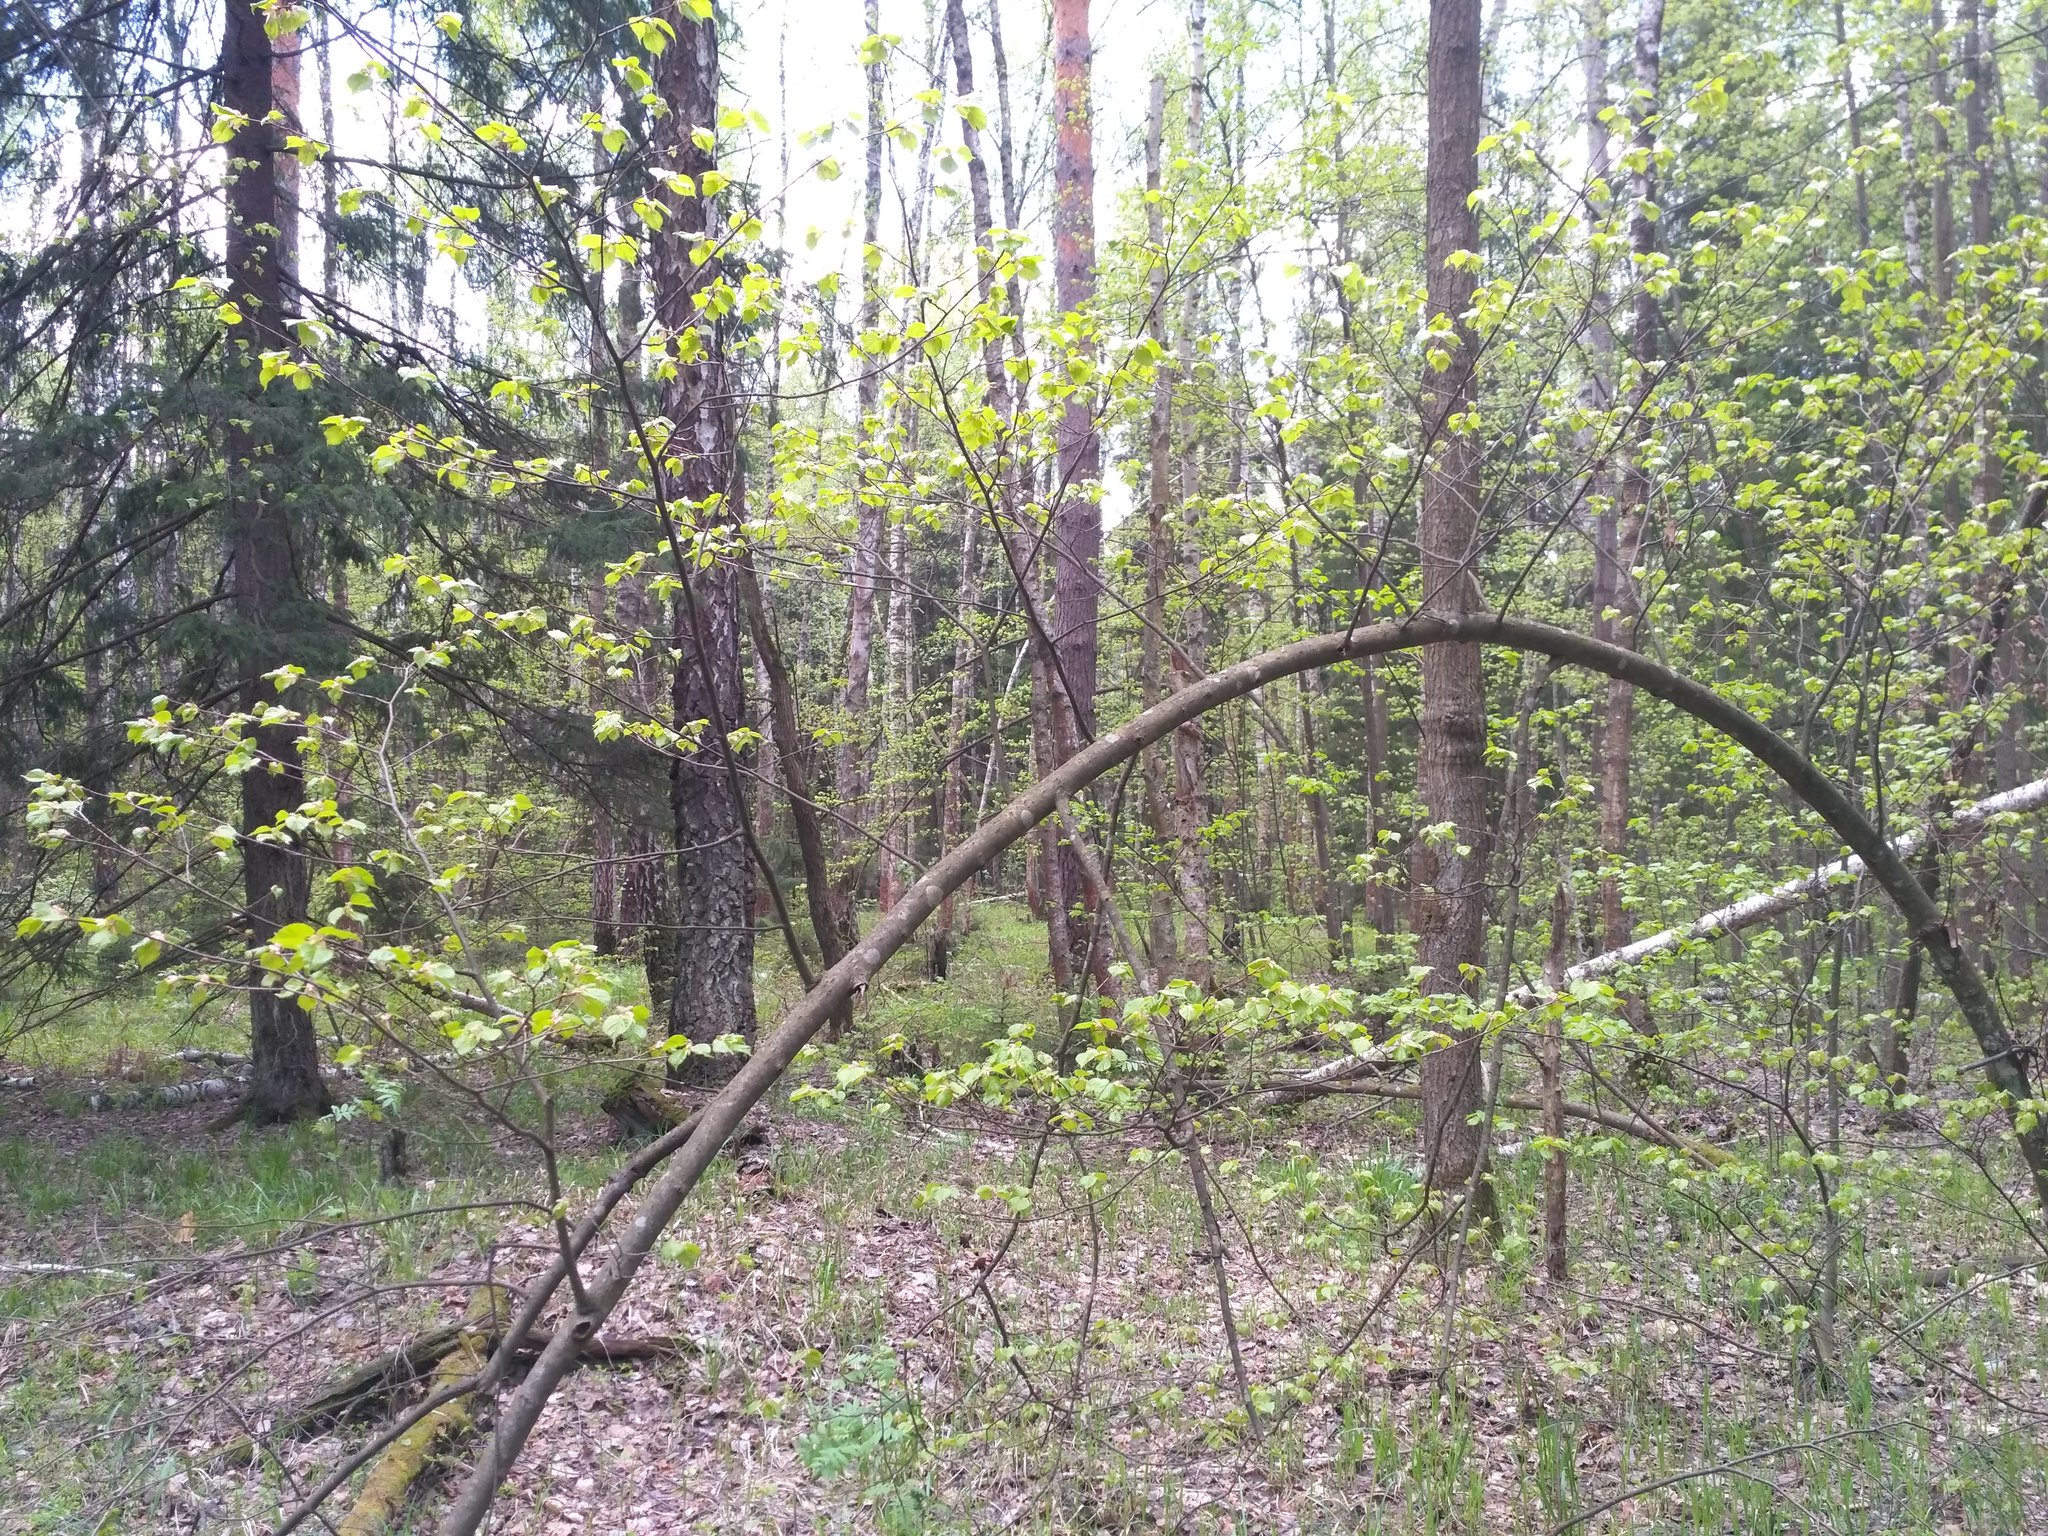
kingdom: Plantae
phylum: Tracheophyta
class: Magnoliopsida
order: Malvales
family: Malvaceae
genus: Tilia
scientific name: Tilia cordata
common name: Small-leaved lime
